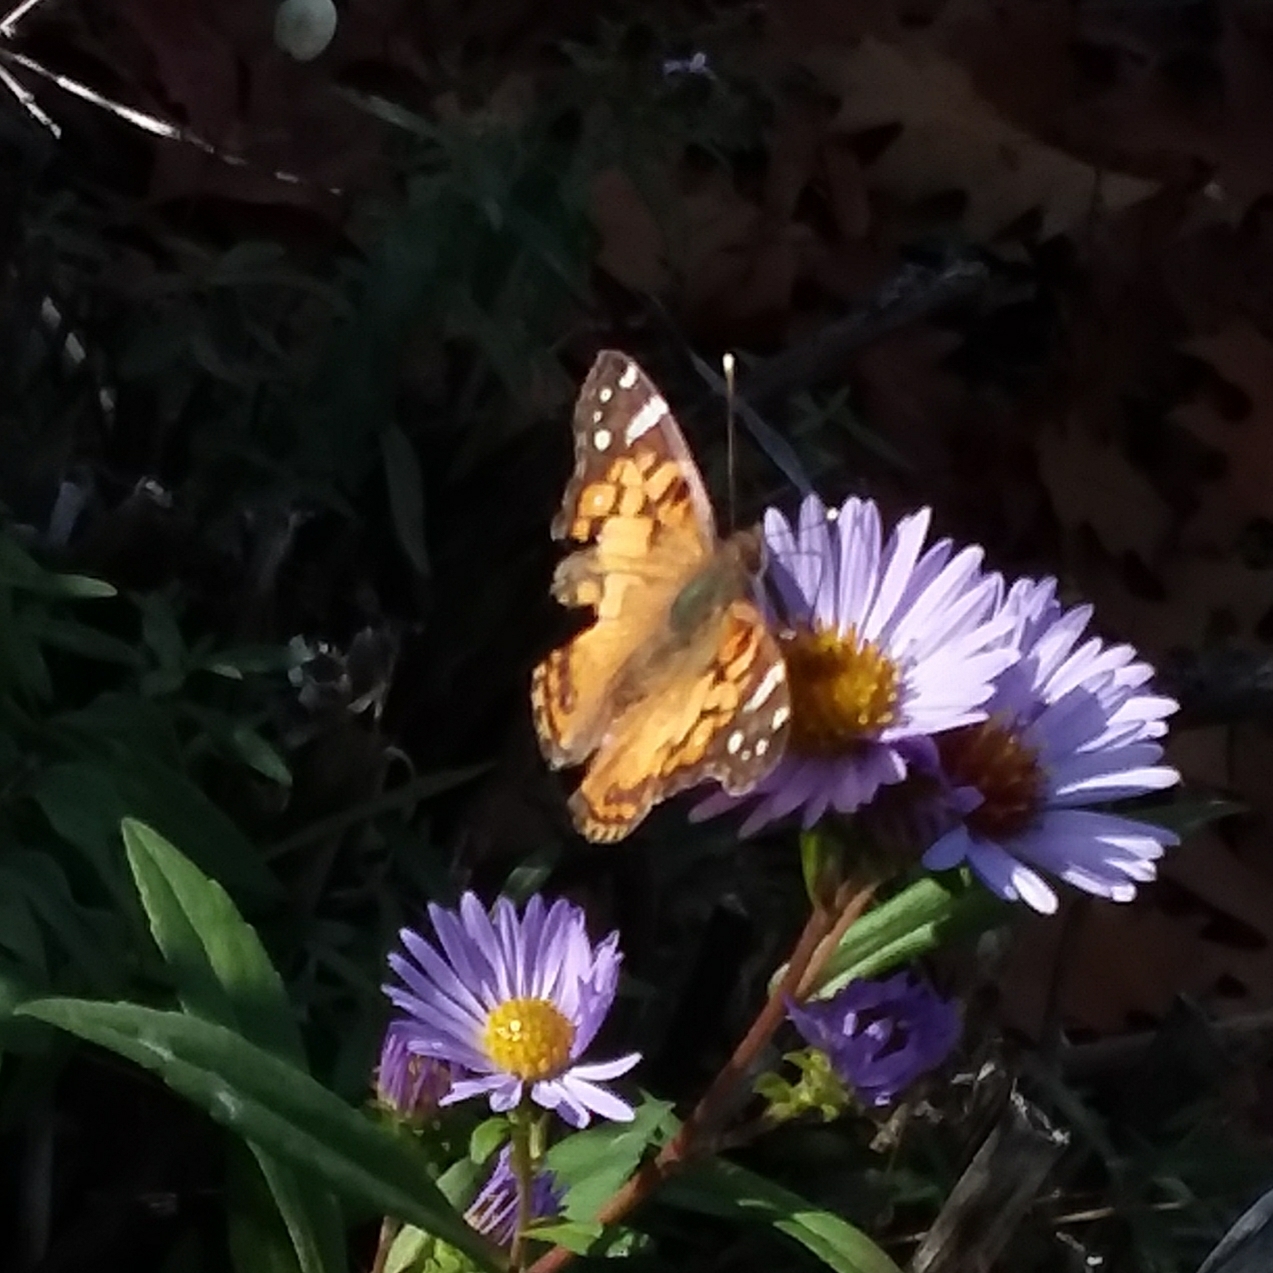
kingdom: Animalia
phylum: Arthropoda
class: Insecta
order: Lepidoptera
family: Nymphalidae
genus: Vanessa
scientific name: Vanessa virginiensis
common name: American lady
